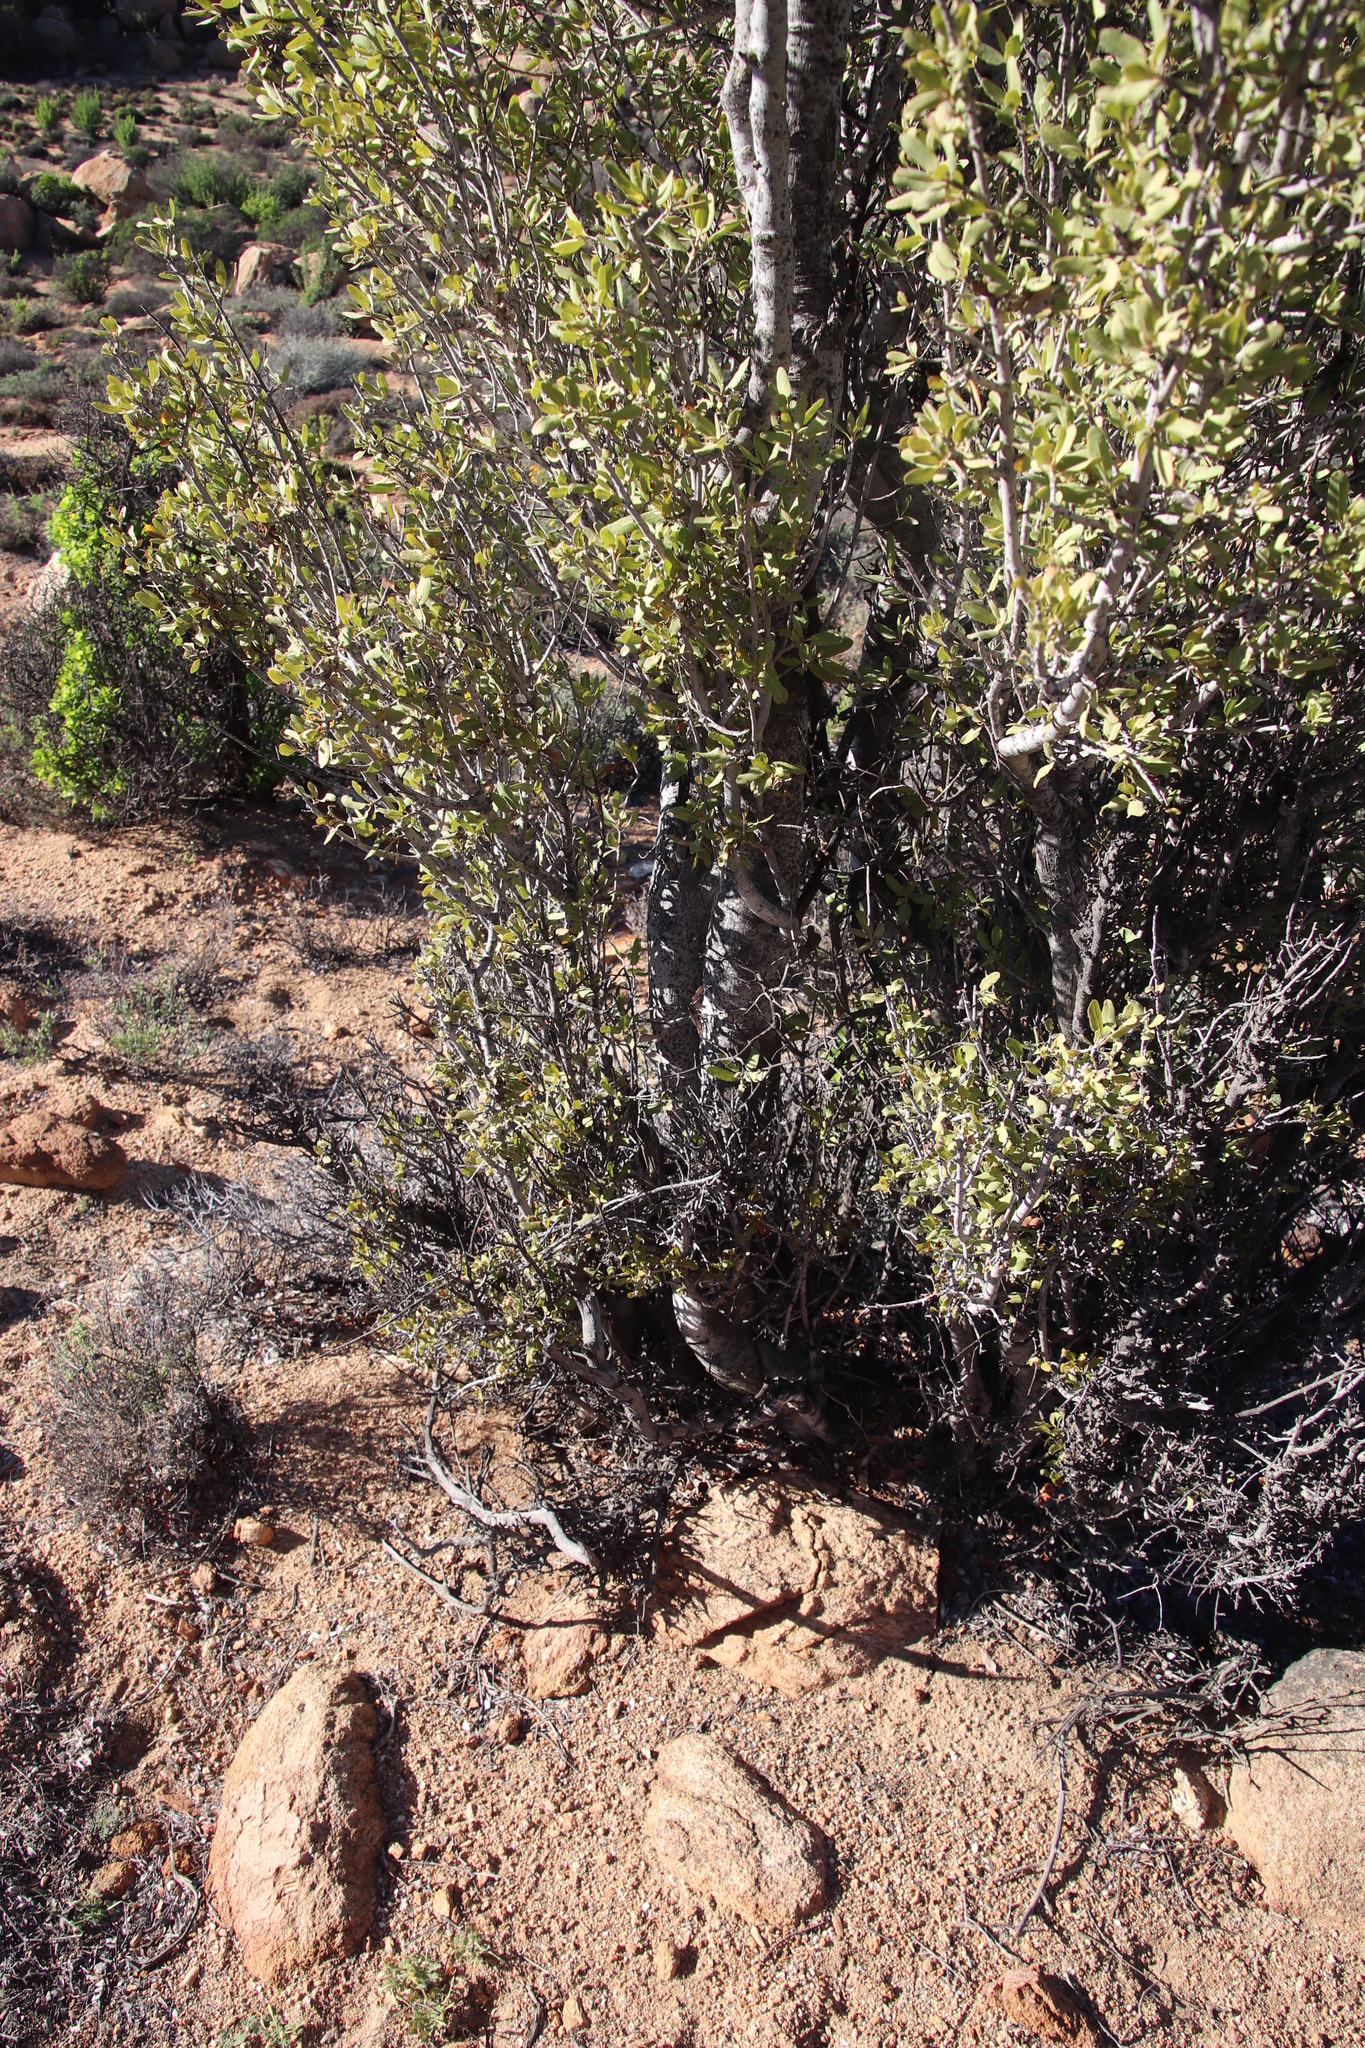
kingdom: Plantae
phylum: Tracheophyta
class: Magnoliopsida
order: Brassicales
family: Capparaceae
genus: Boscia
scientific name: Boscia albitrunca
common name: Caper bush
